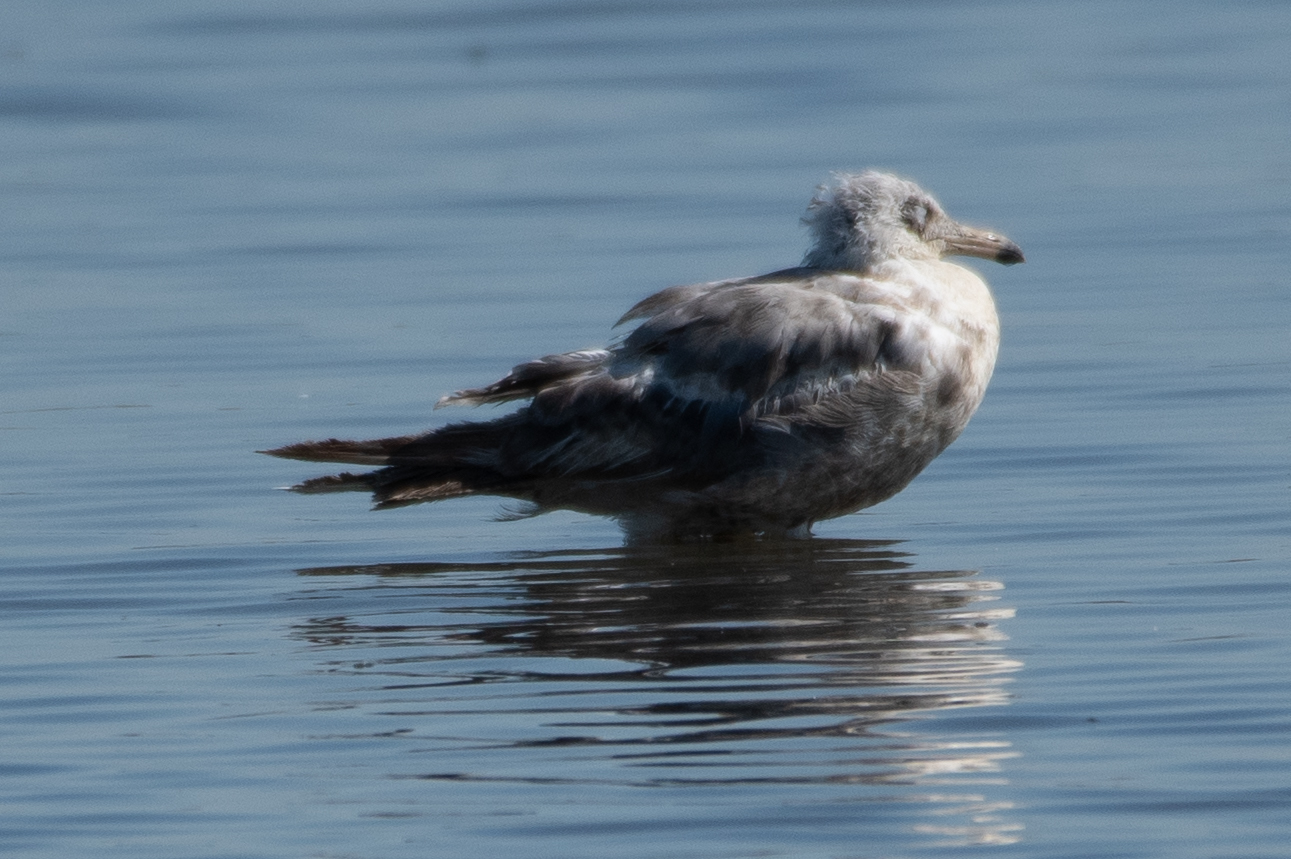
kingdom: Animalia
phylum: Chordata
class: Aves
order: Charadriiformes
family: Laridae
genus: Larus
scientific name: Larus californicus
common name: California gull
